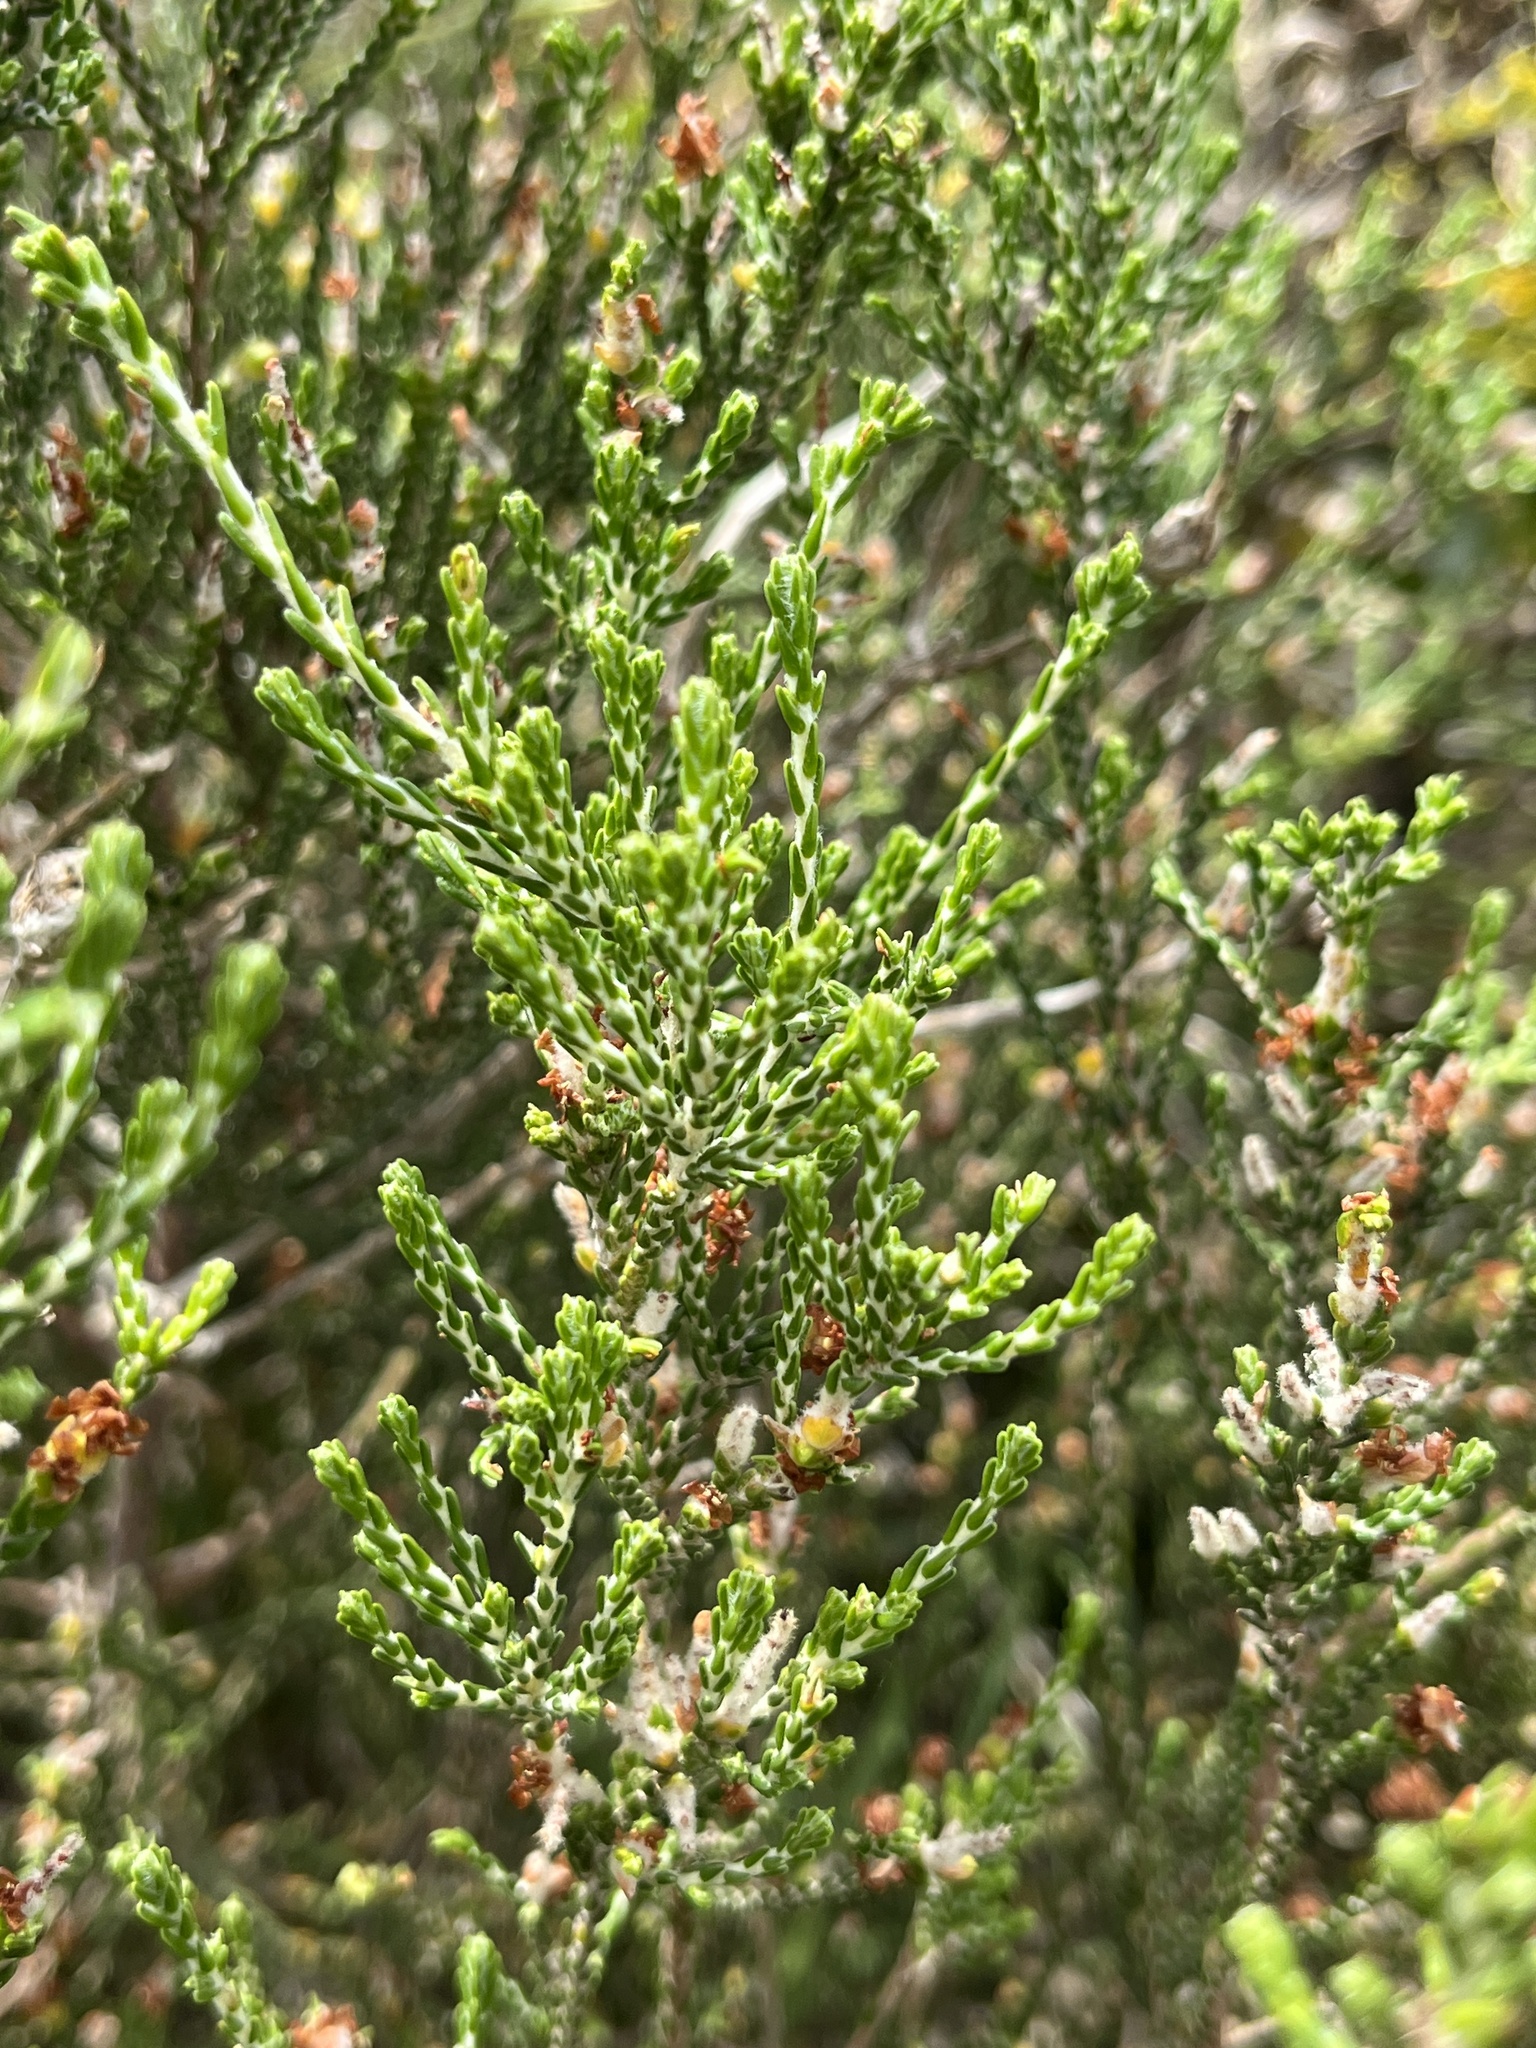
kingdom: Plantae
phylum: Tracheophyta
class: Magnoliopsida
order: Malvales
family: Thymelaeaceae
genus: Passerina
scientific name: Passerina rigida
